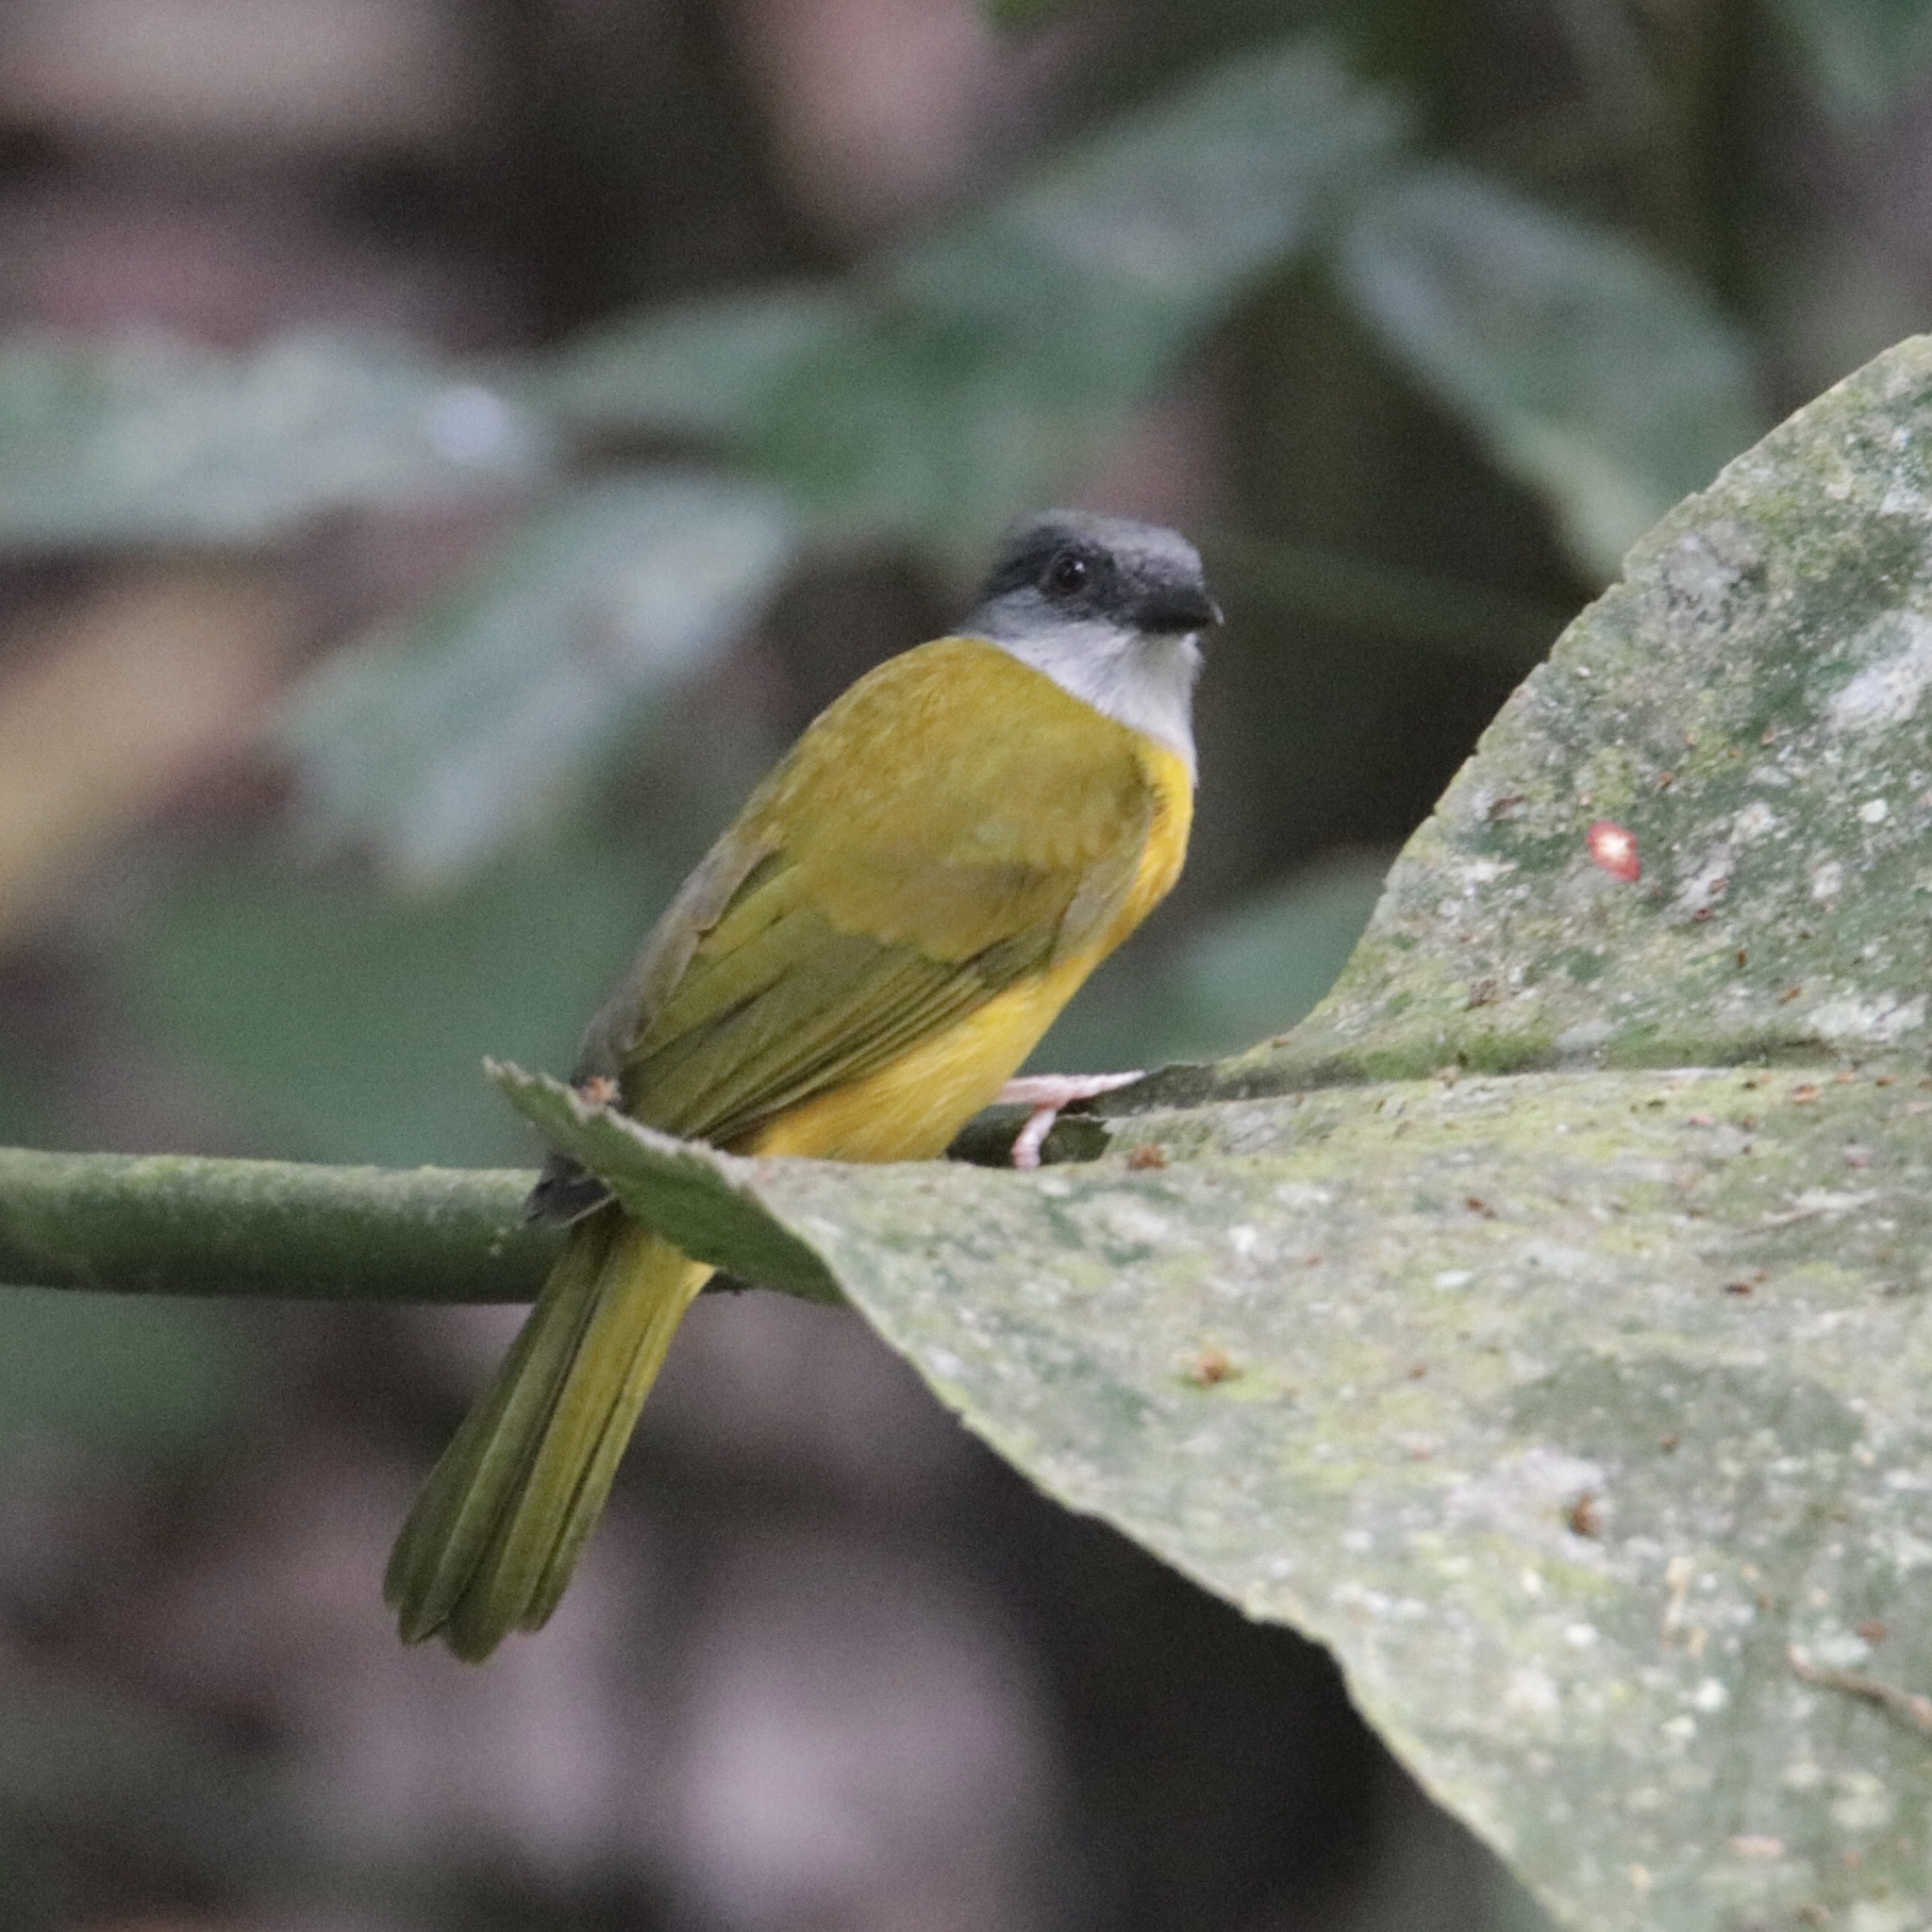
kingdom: Animalia
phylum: Chordata
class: Aves
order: Passeriformes
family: Thraupidae
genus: Eucometis
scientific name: Eucometis penicillata
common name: Grey-headed tanager
